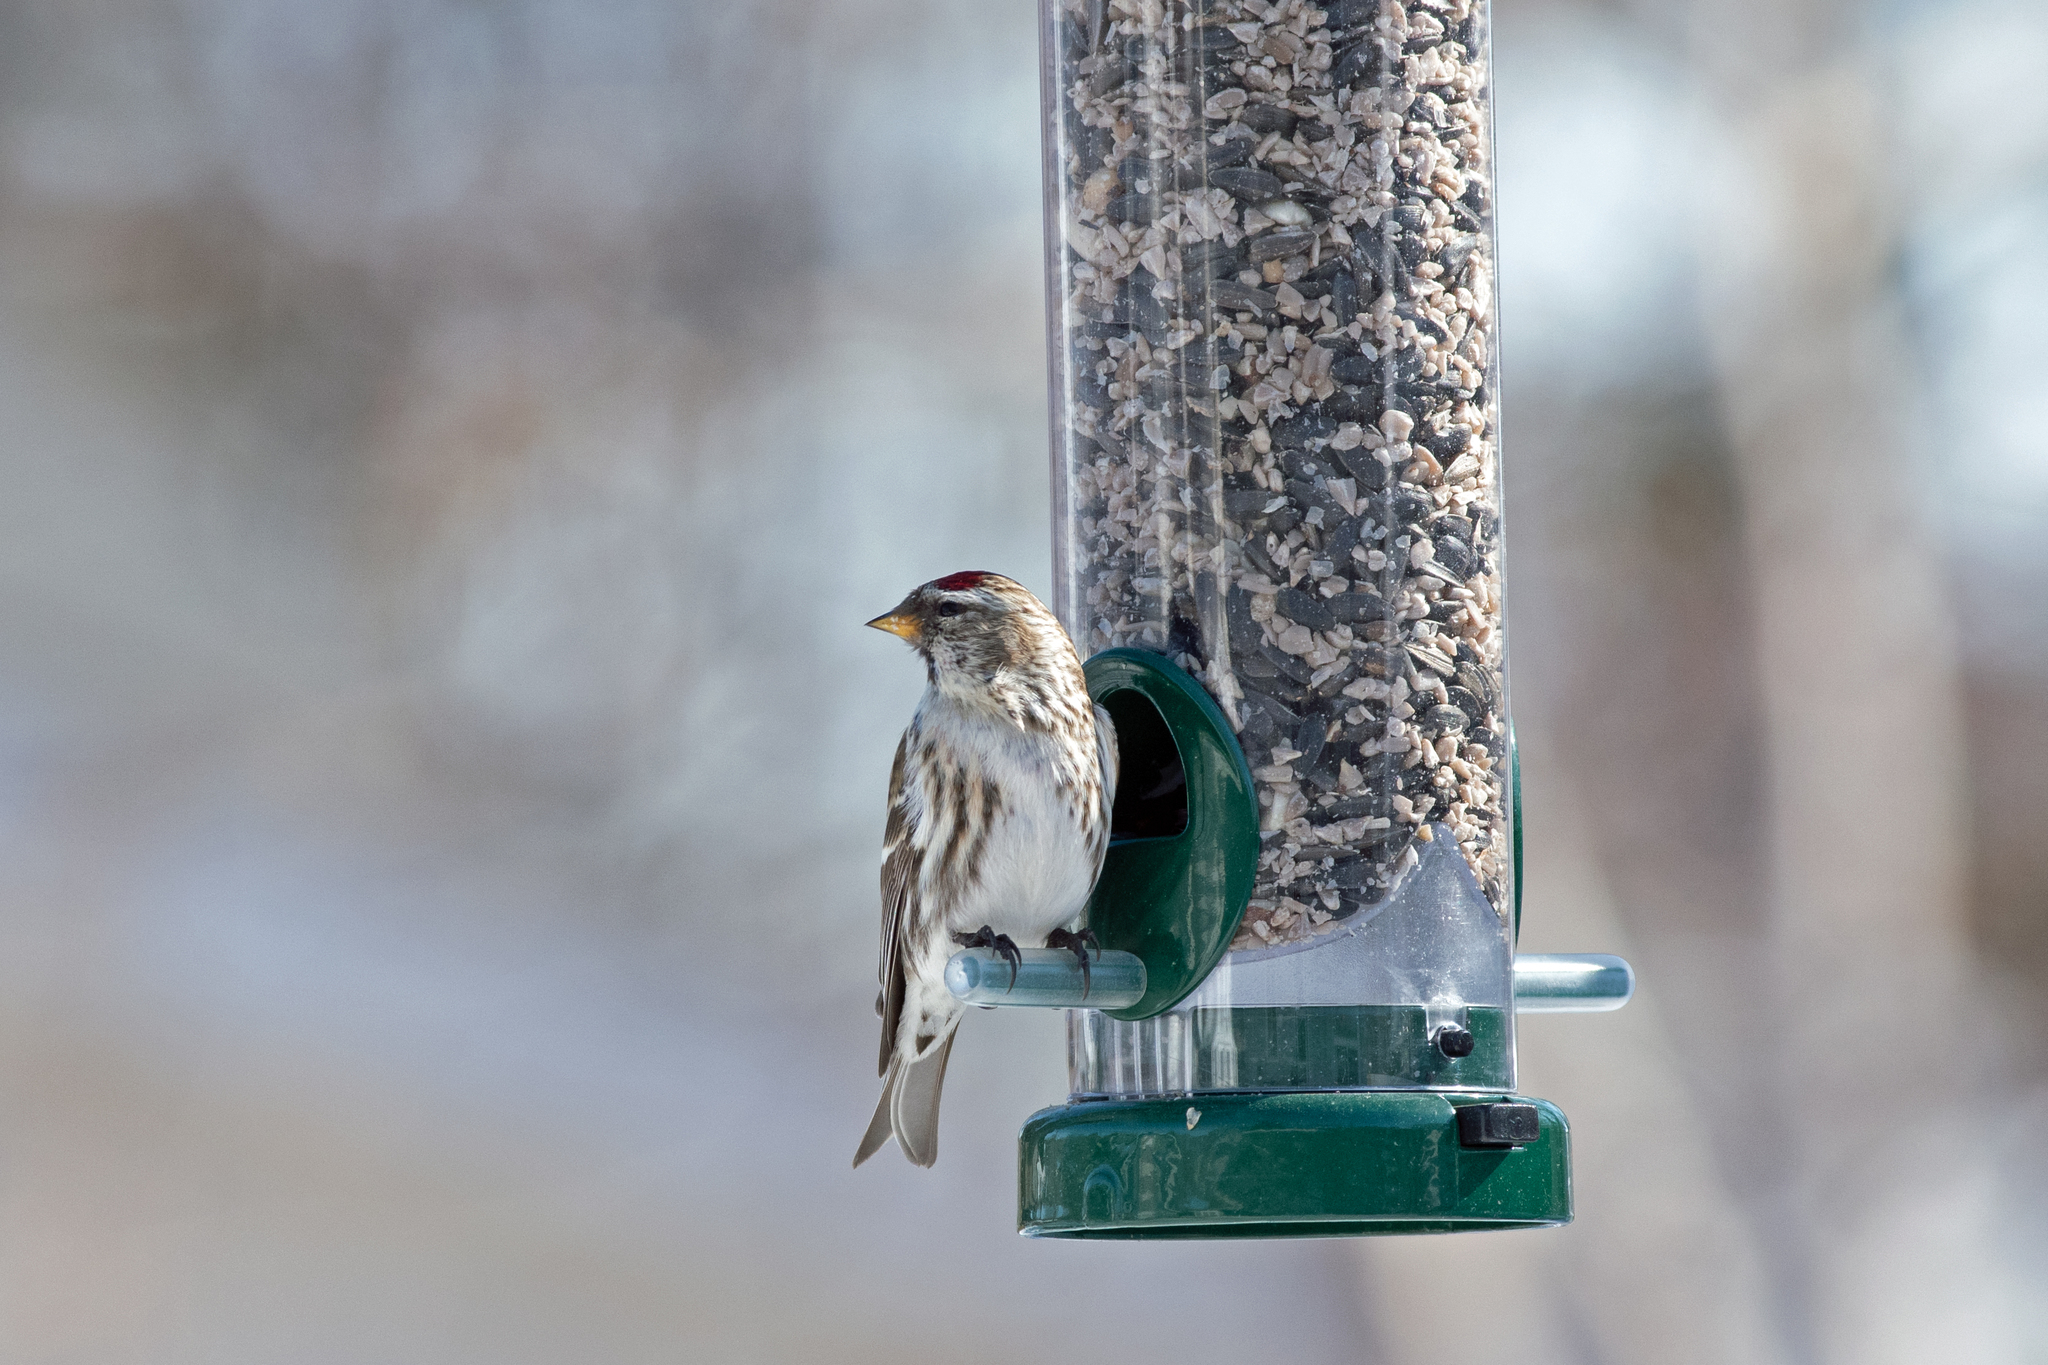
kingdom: Animalia
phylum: Chordata
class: Aves
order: Passeriformes
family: Fringillidae
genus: Acanthis
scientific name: Acanthis flammea
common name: Common redpoll
